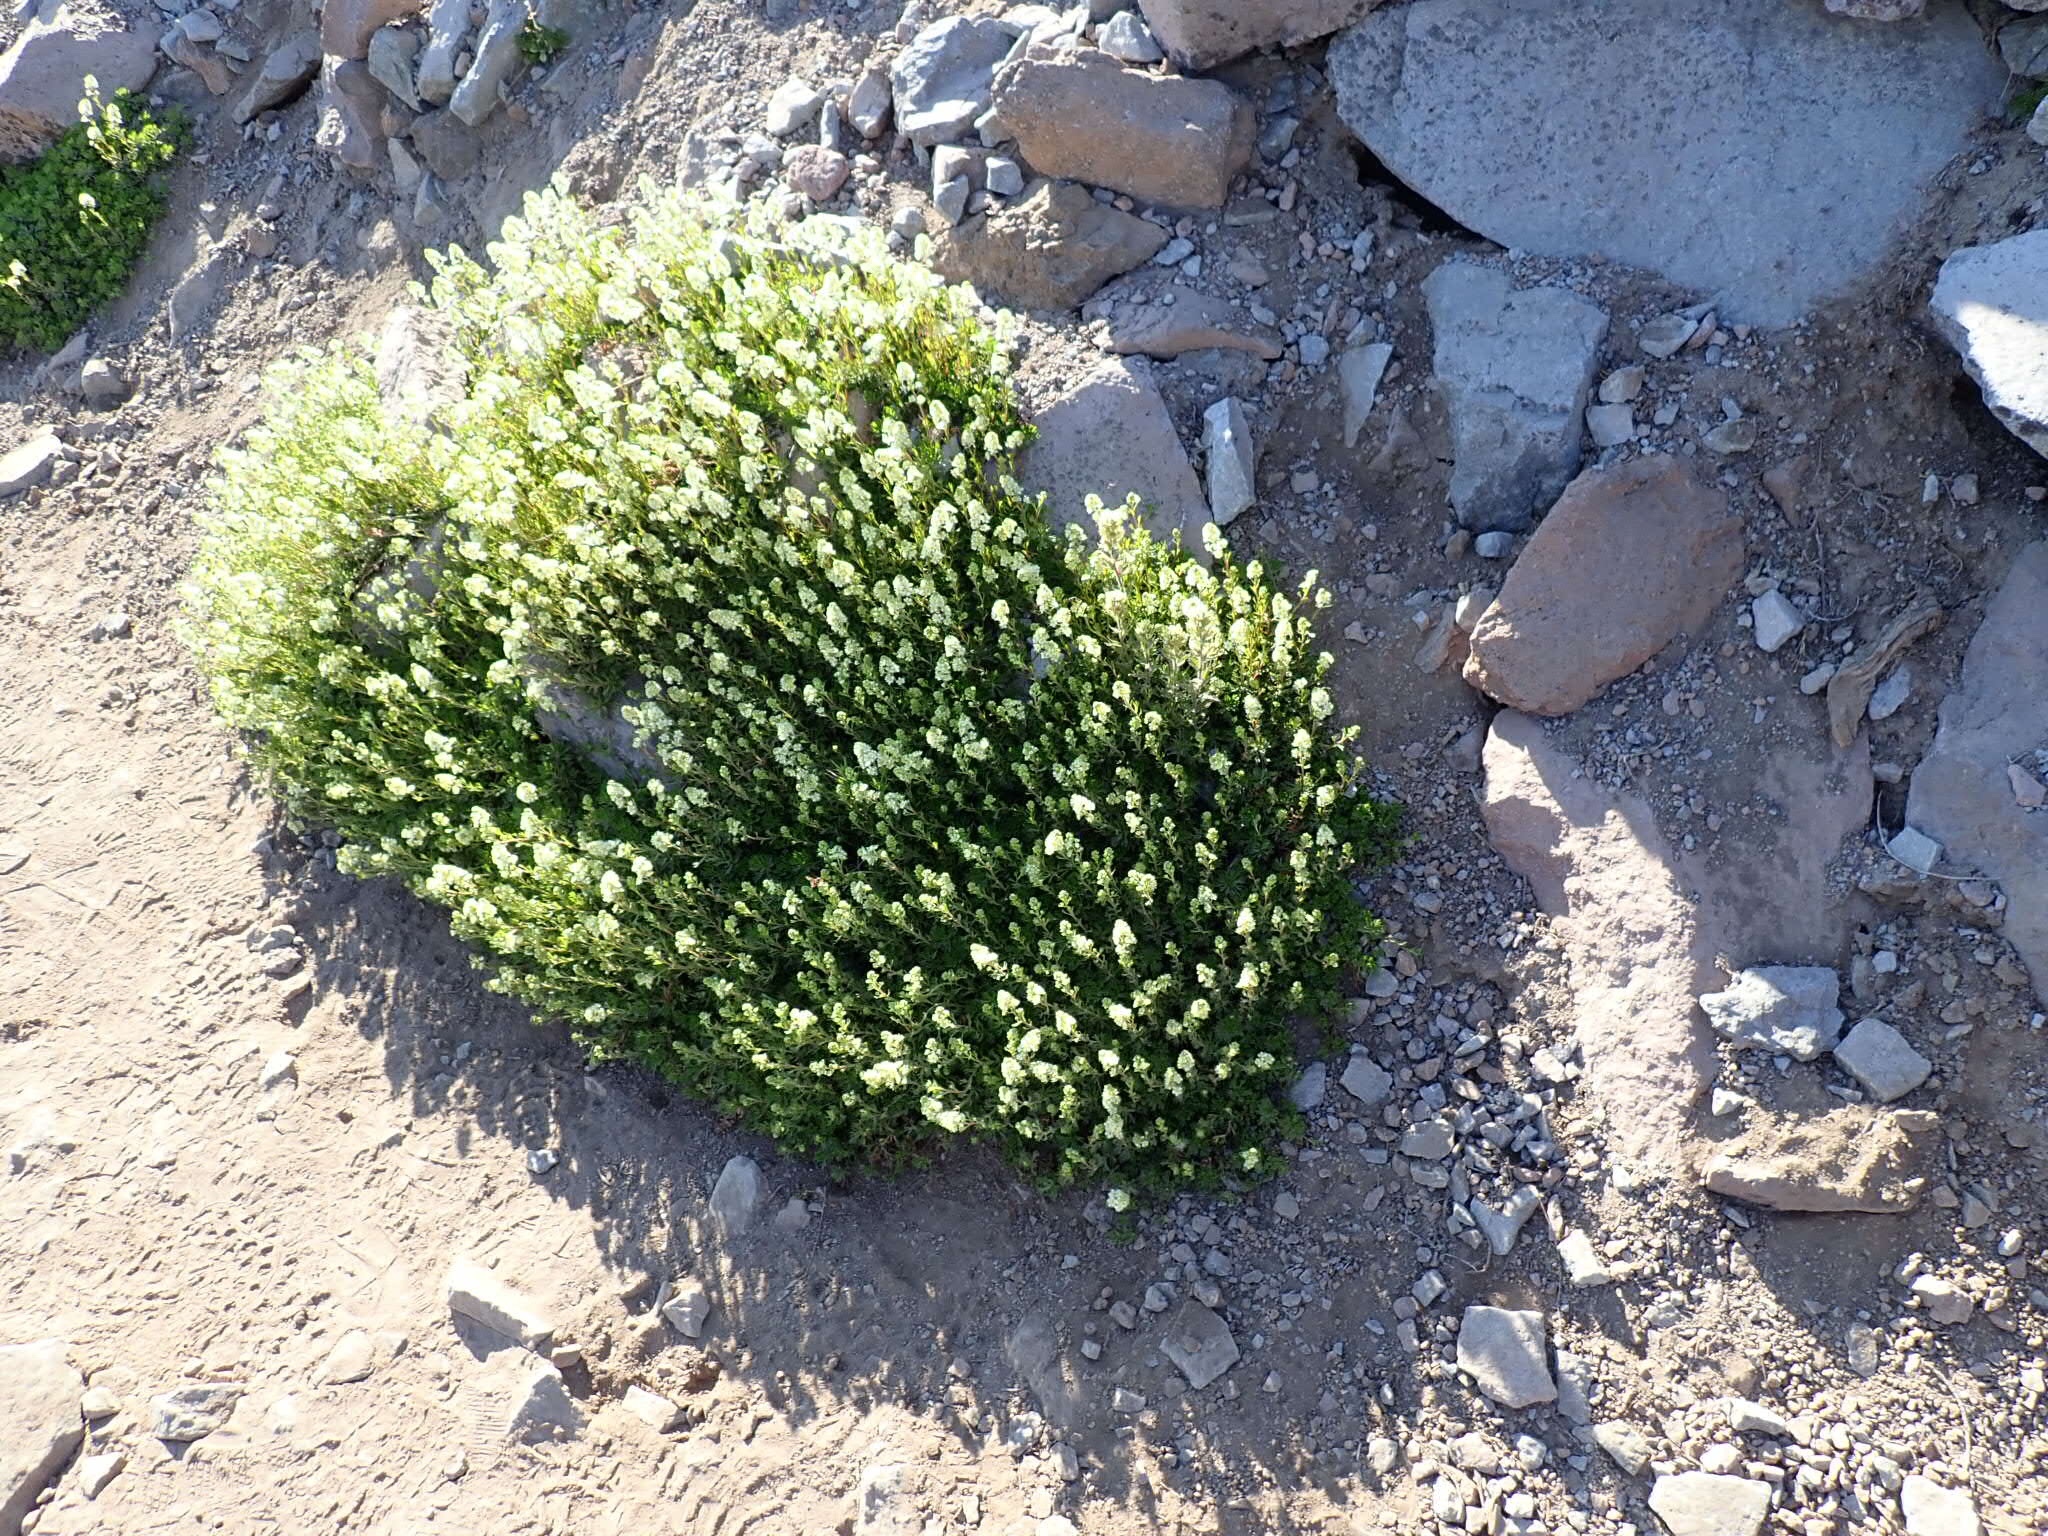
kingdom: Plantae
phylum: Tracheophyta
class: Magnoliopsida
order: Rosales
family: Rosaceae
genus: Luetkea
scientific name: Luetkea pectinata
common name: Partridgefoot
